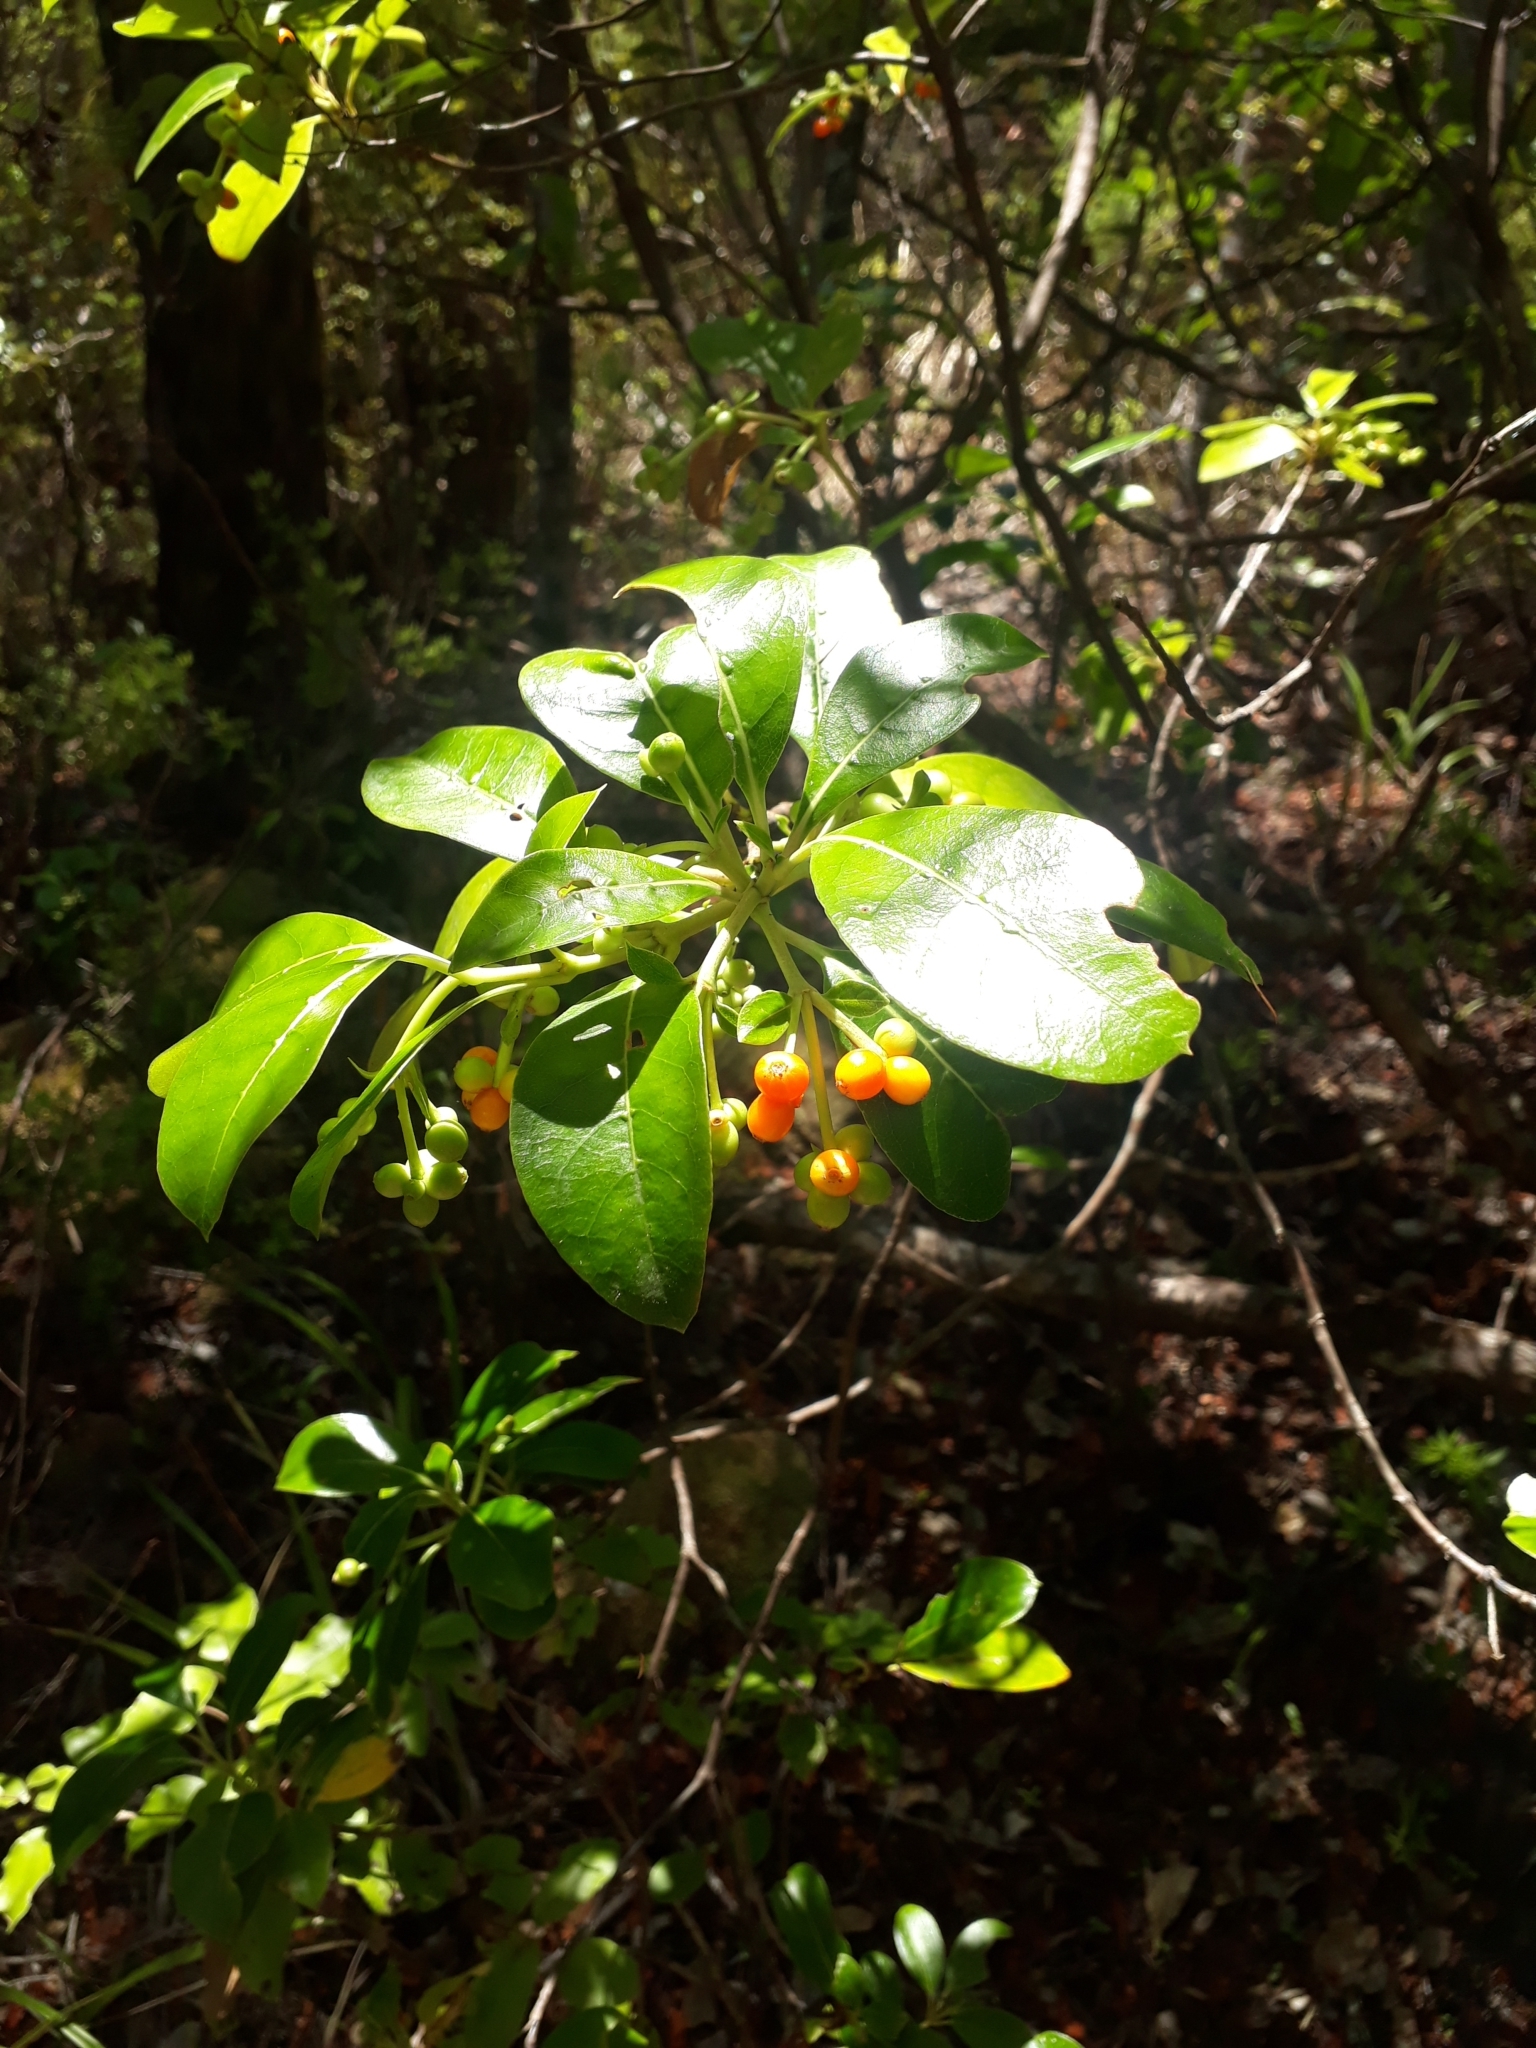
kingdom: Plantae
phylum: Tracheophyta
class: Magnoliopsida
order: Gentianales
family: Rubiaceae
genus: Coprosma
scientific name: Coprosma lucida
